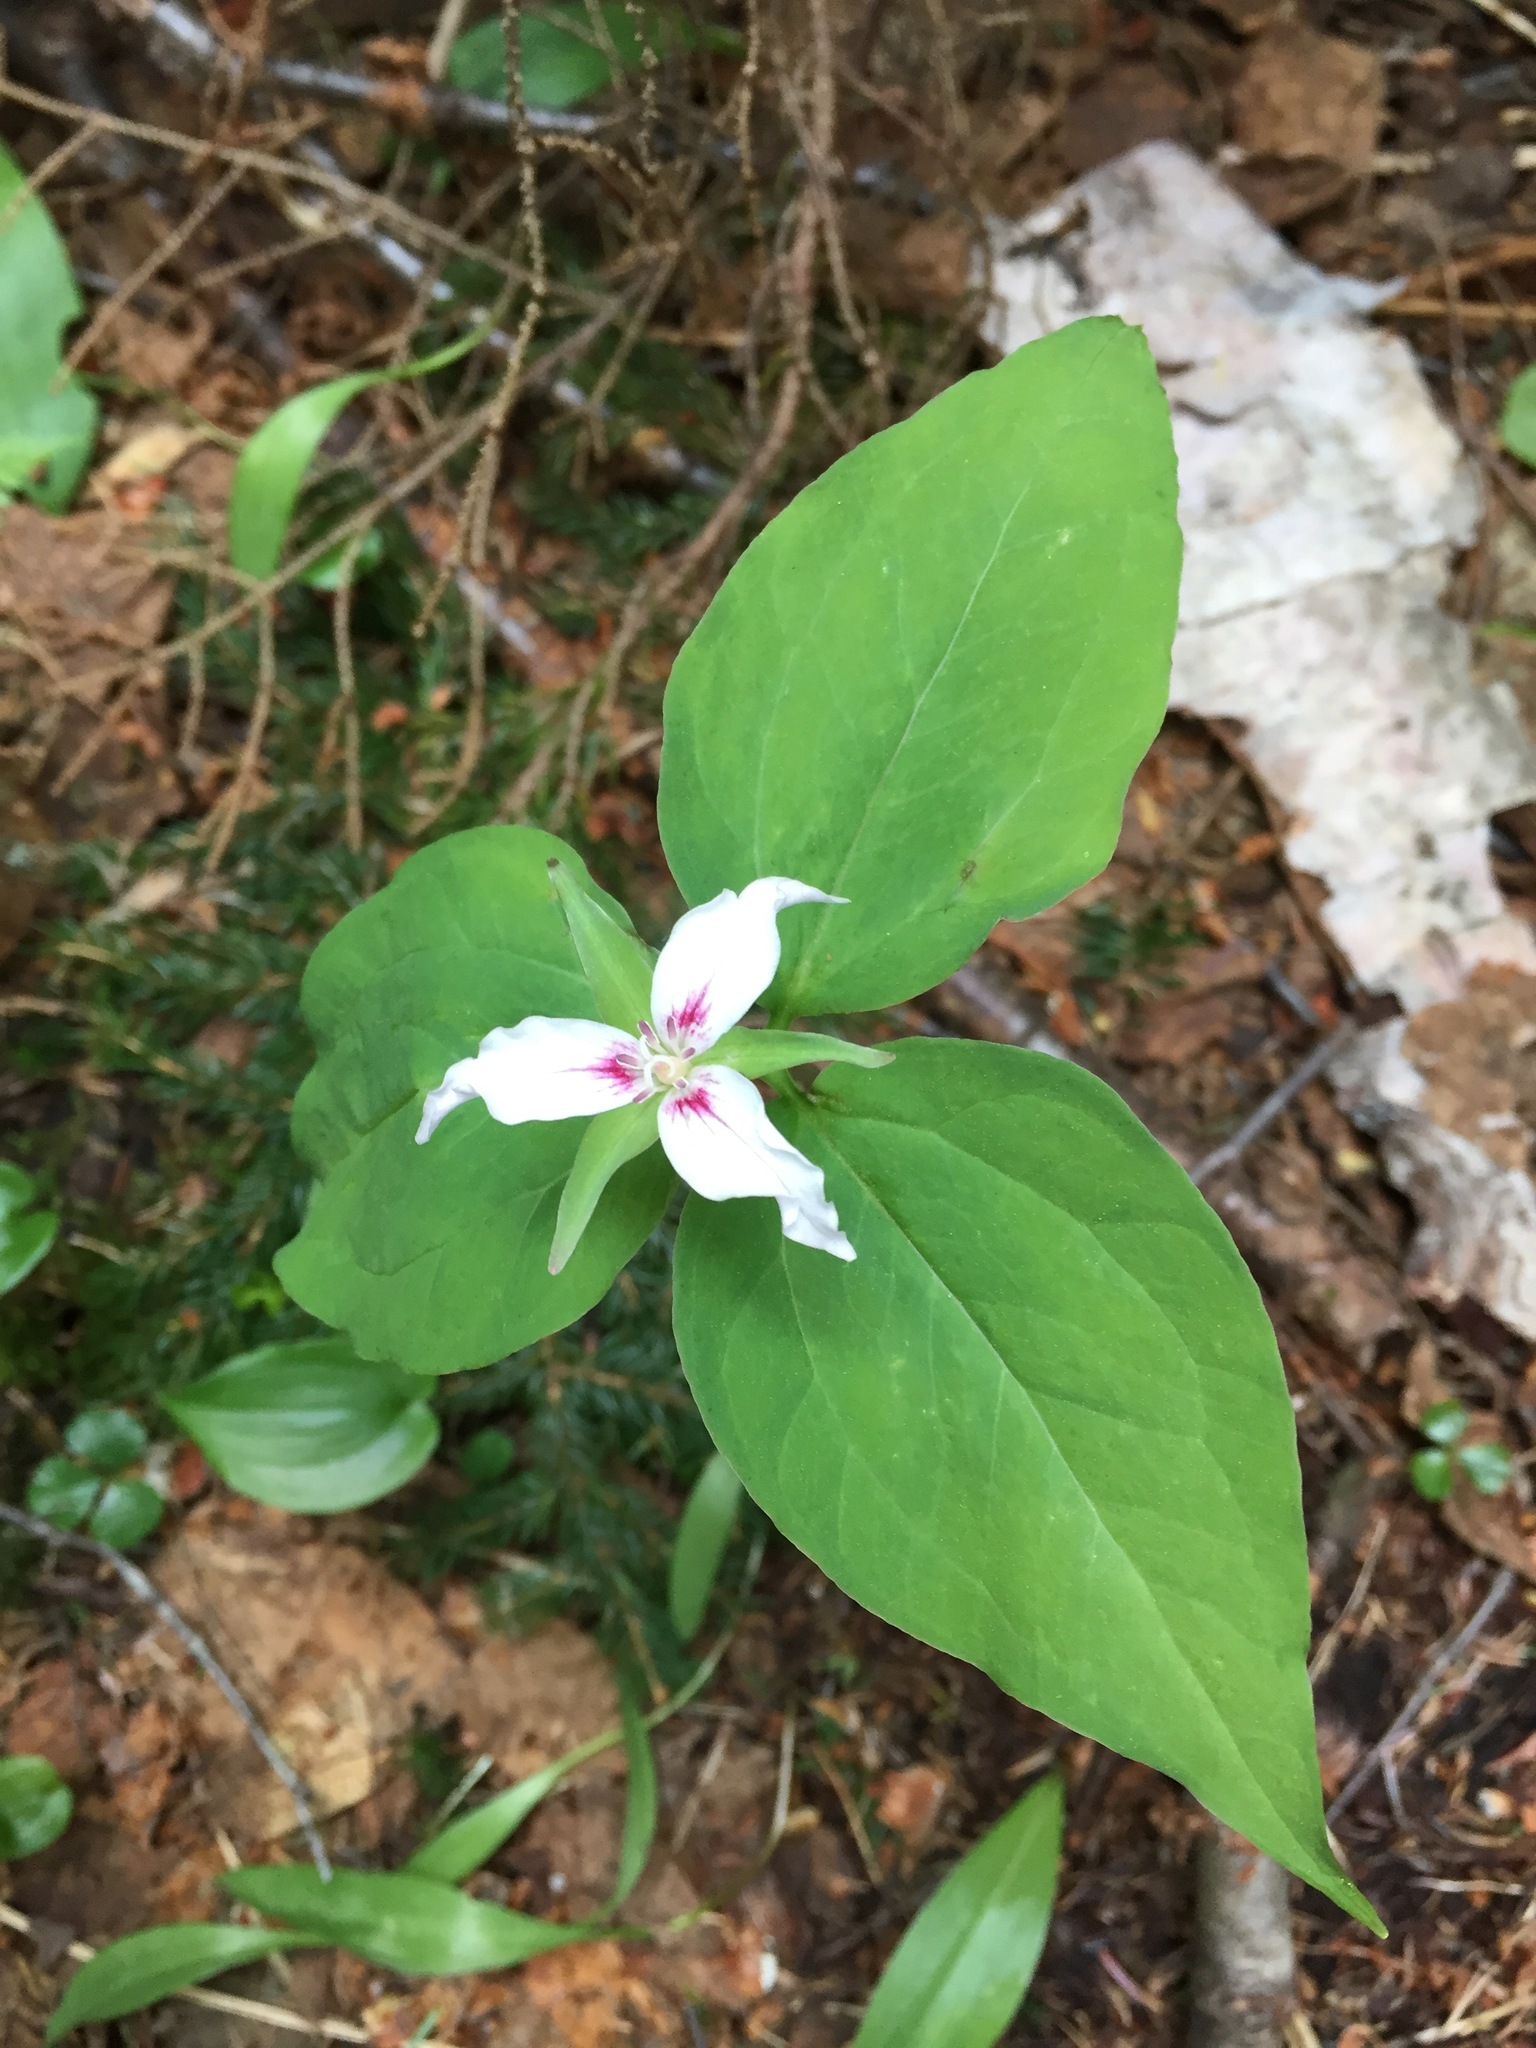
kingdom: Plantae
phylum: Tracheophyta
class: Liliopsida
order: Liliales
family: Melanthiaceae
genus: Trillium
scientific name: Trillium undulatum
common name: Paint trillium
